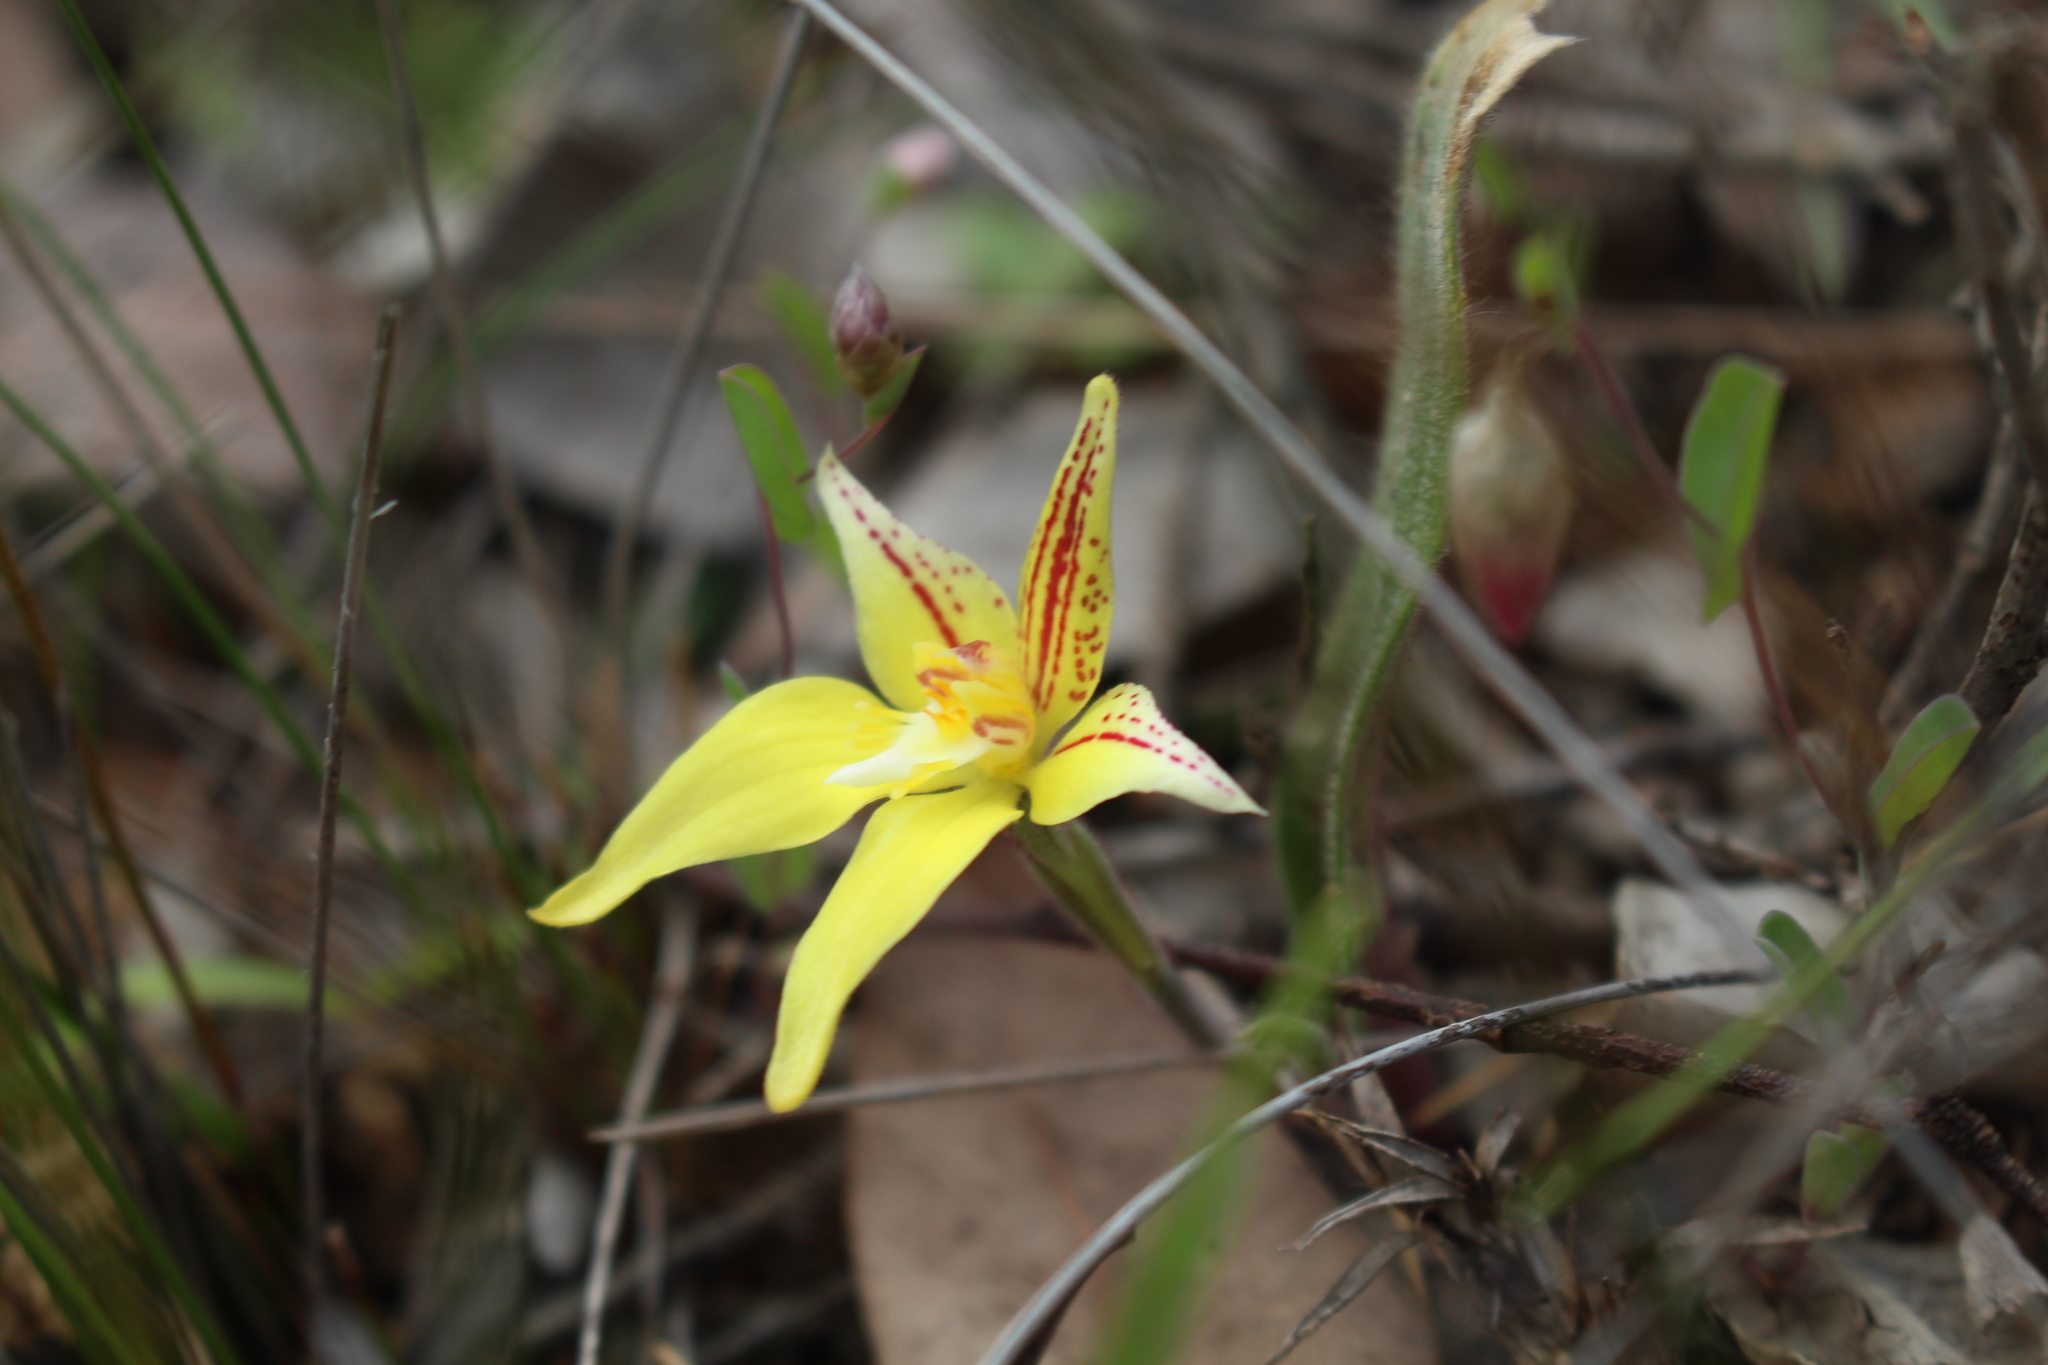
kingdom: Plantae
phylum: Tracheophyta
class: Liliopsida
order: Asparagales
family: Orchidaceae
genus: Caladenia
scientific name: Caladenia flava
